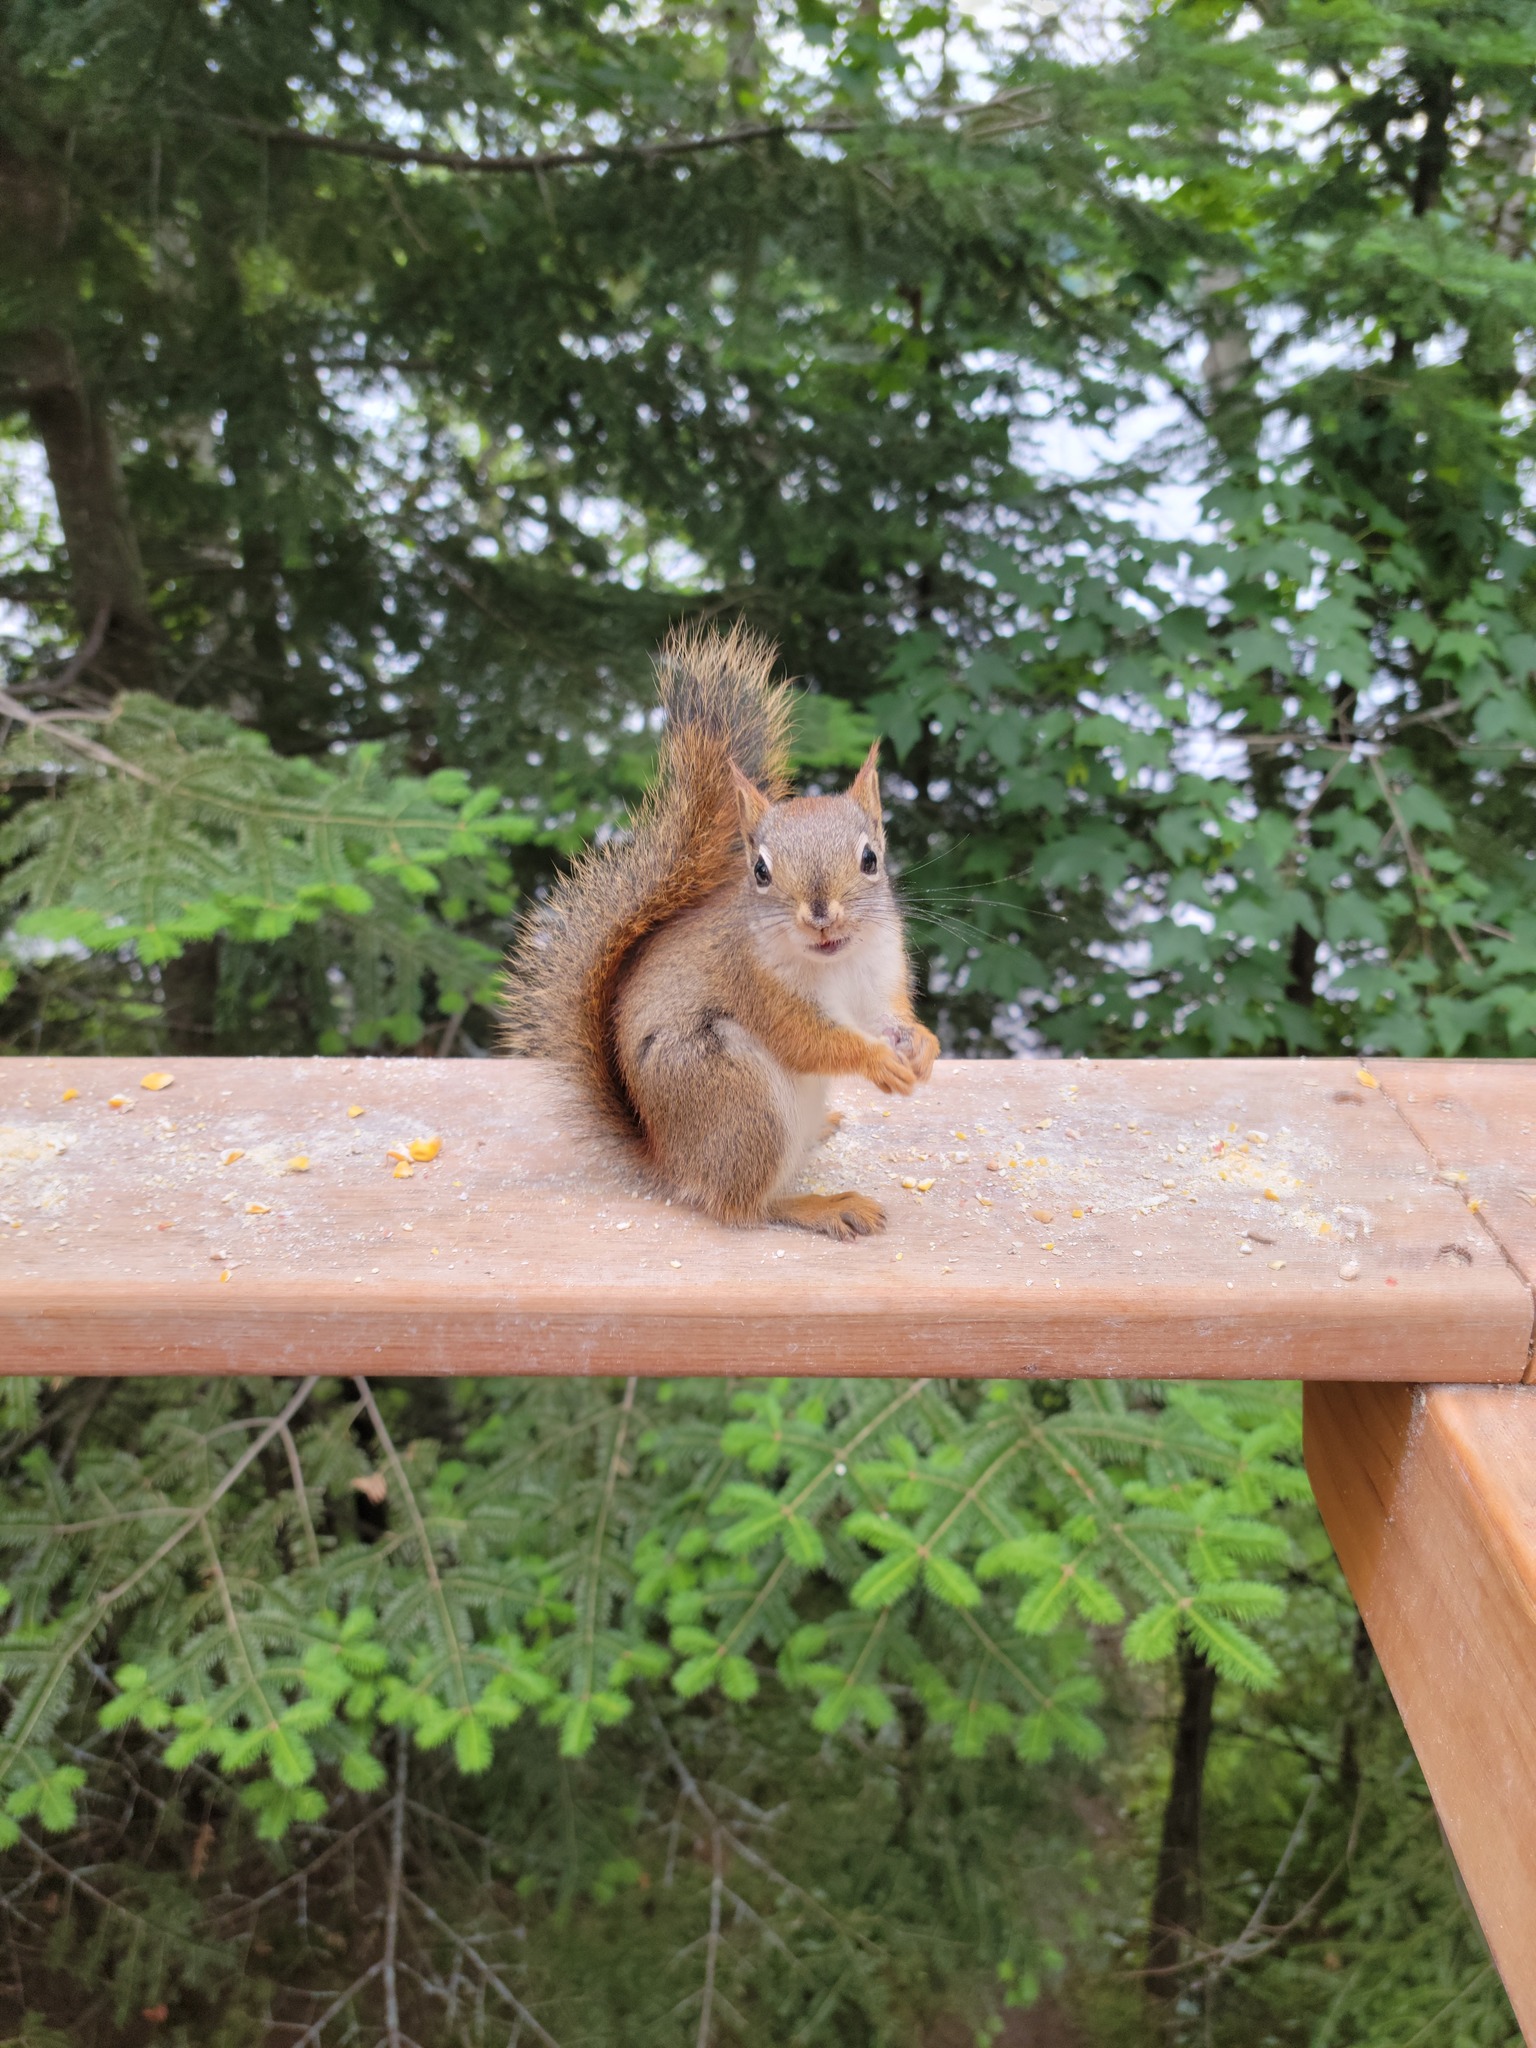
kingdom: Animalia
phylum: Chordata
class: Mammalia
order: Rodentia
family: Sciuridae
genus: Tamiasciurus
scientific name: Tamiasciurus hudsonicus
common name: Red squirrel
